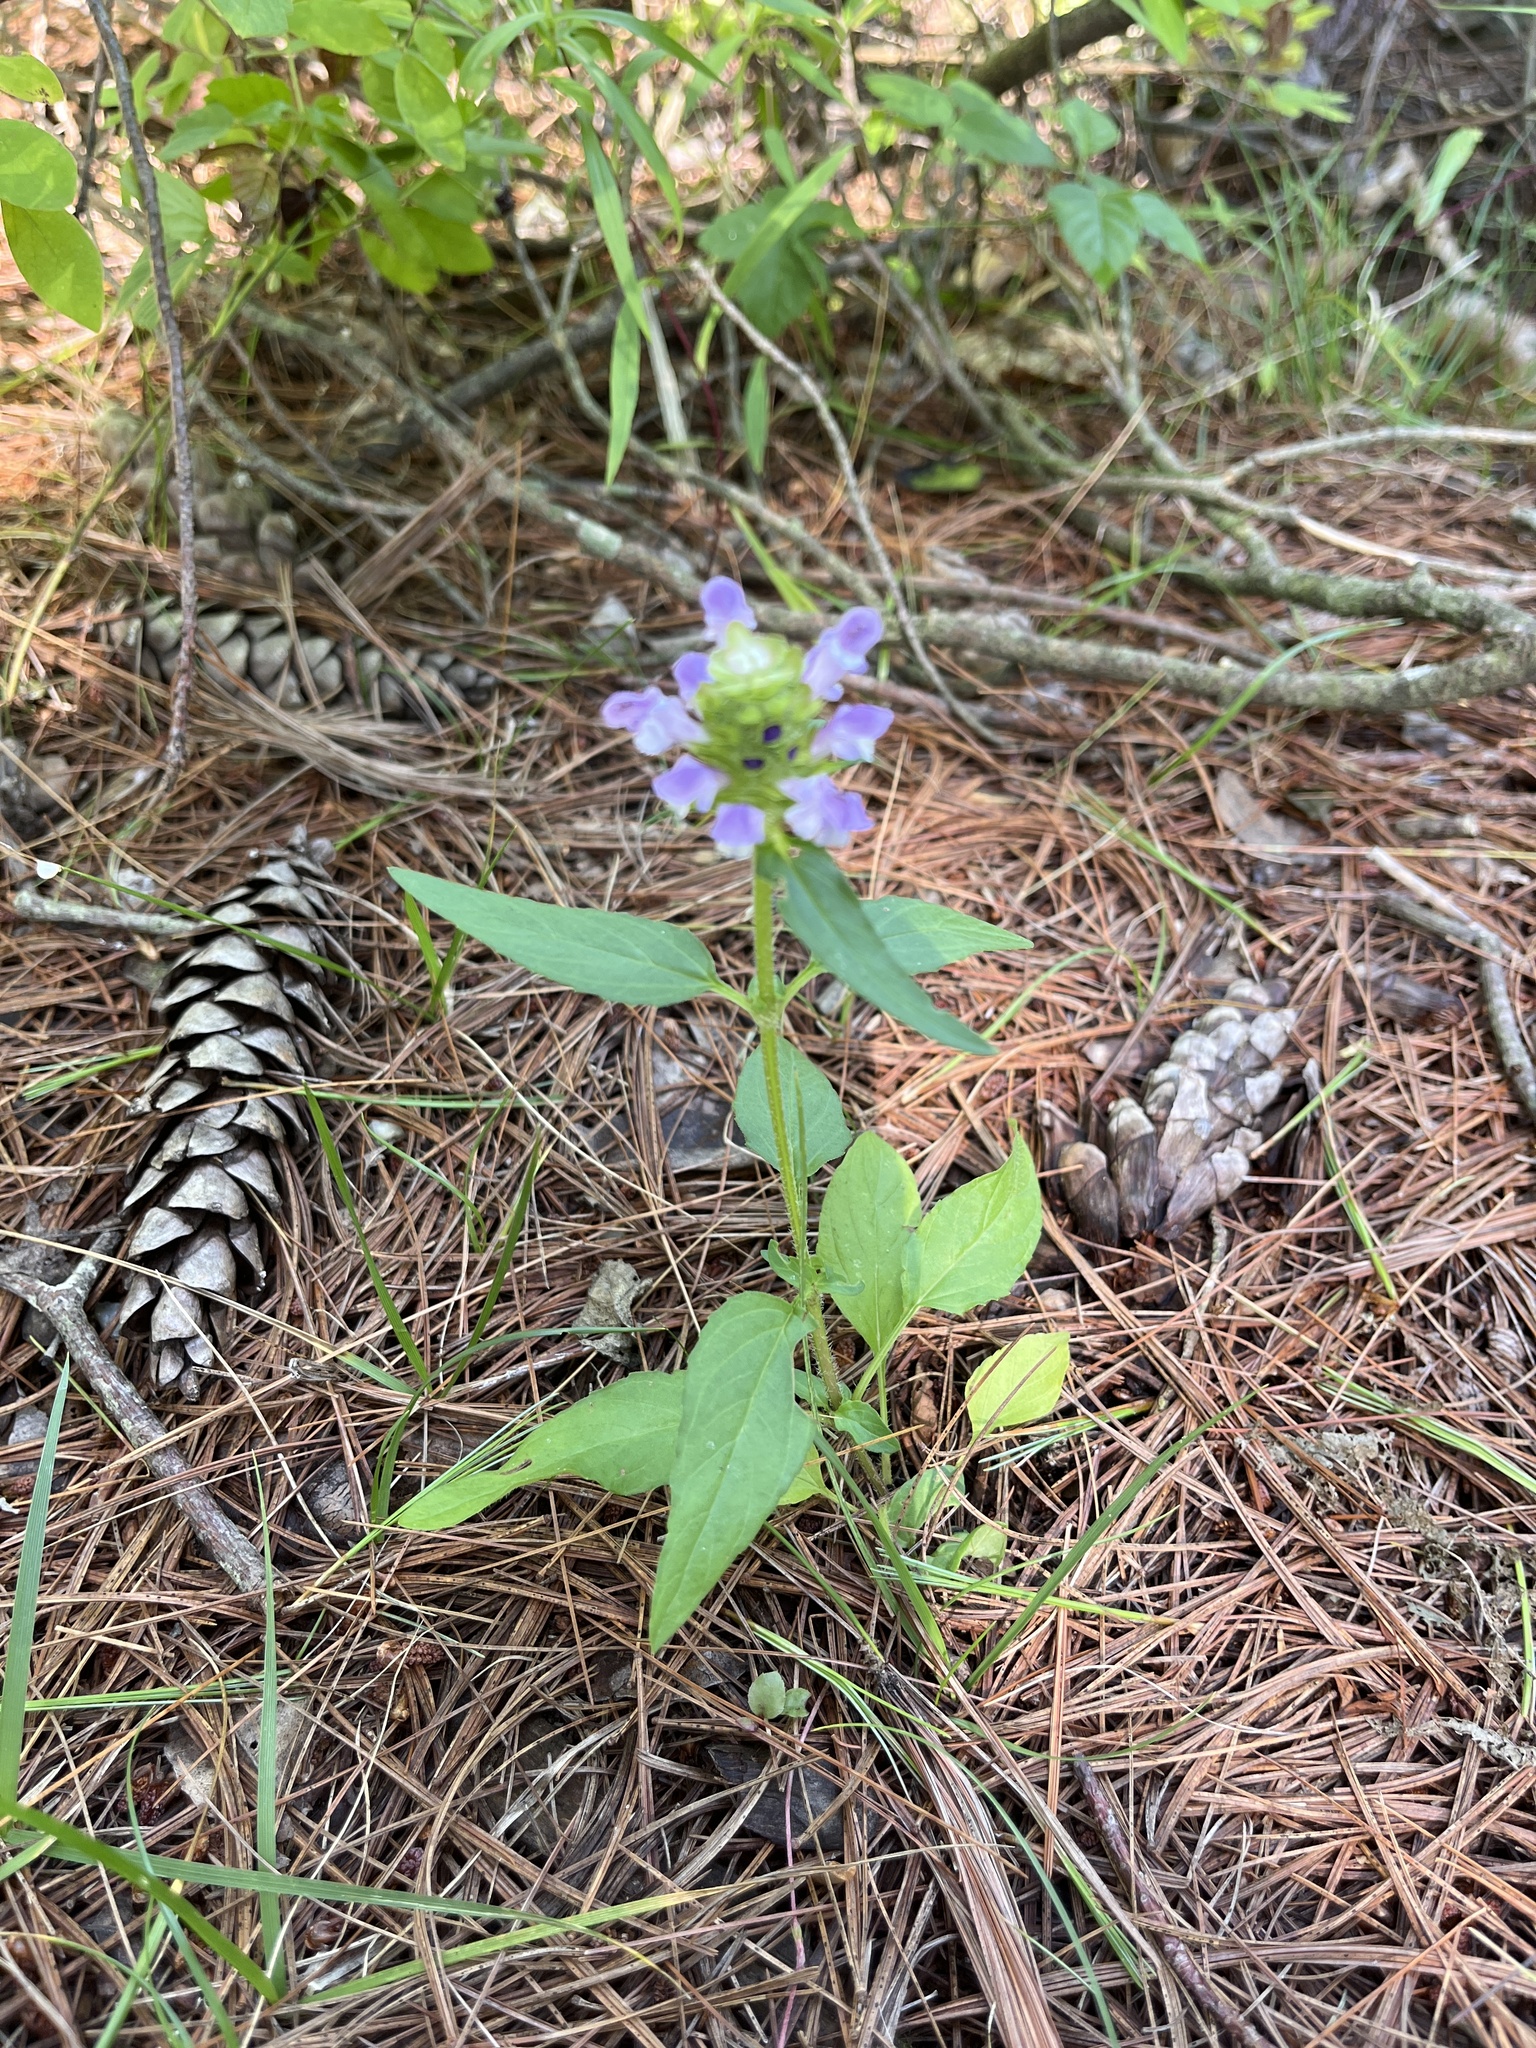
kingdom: Plantae
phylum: Tracheophyta
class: Magnoliopsida
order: Lamiales
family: Lamiaceae
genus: Prunella
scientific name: Prunella vulgaris
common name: Heal-all
